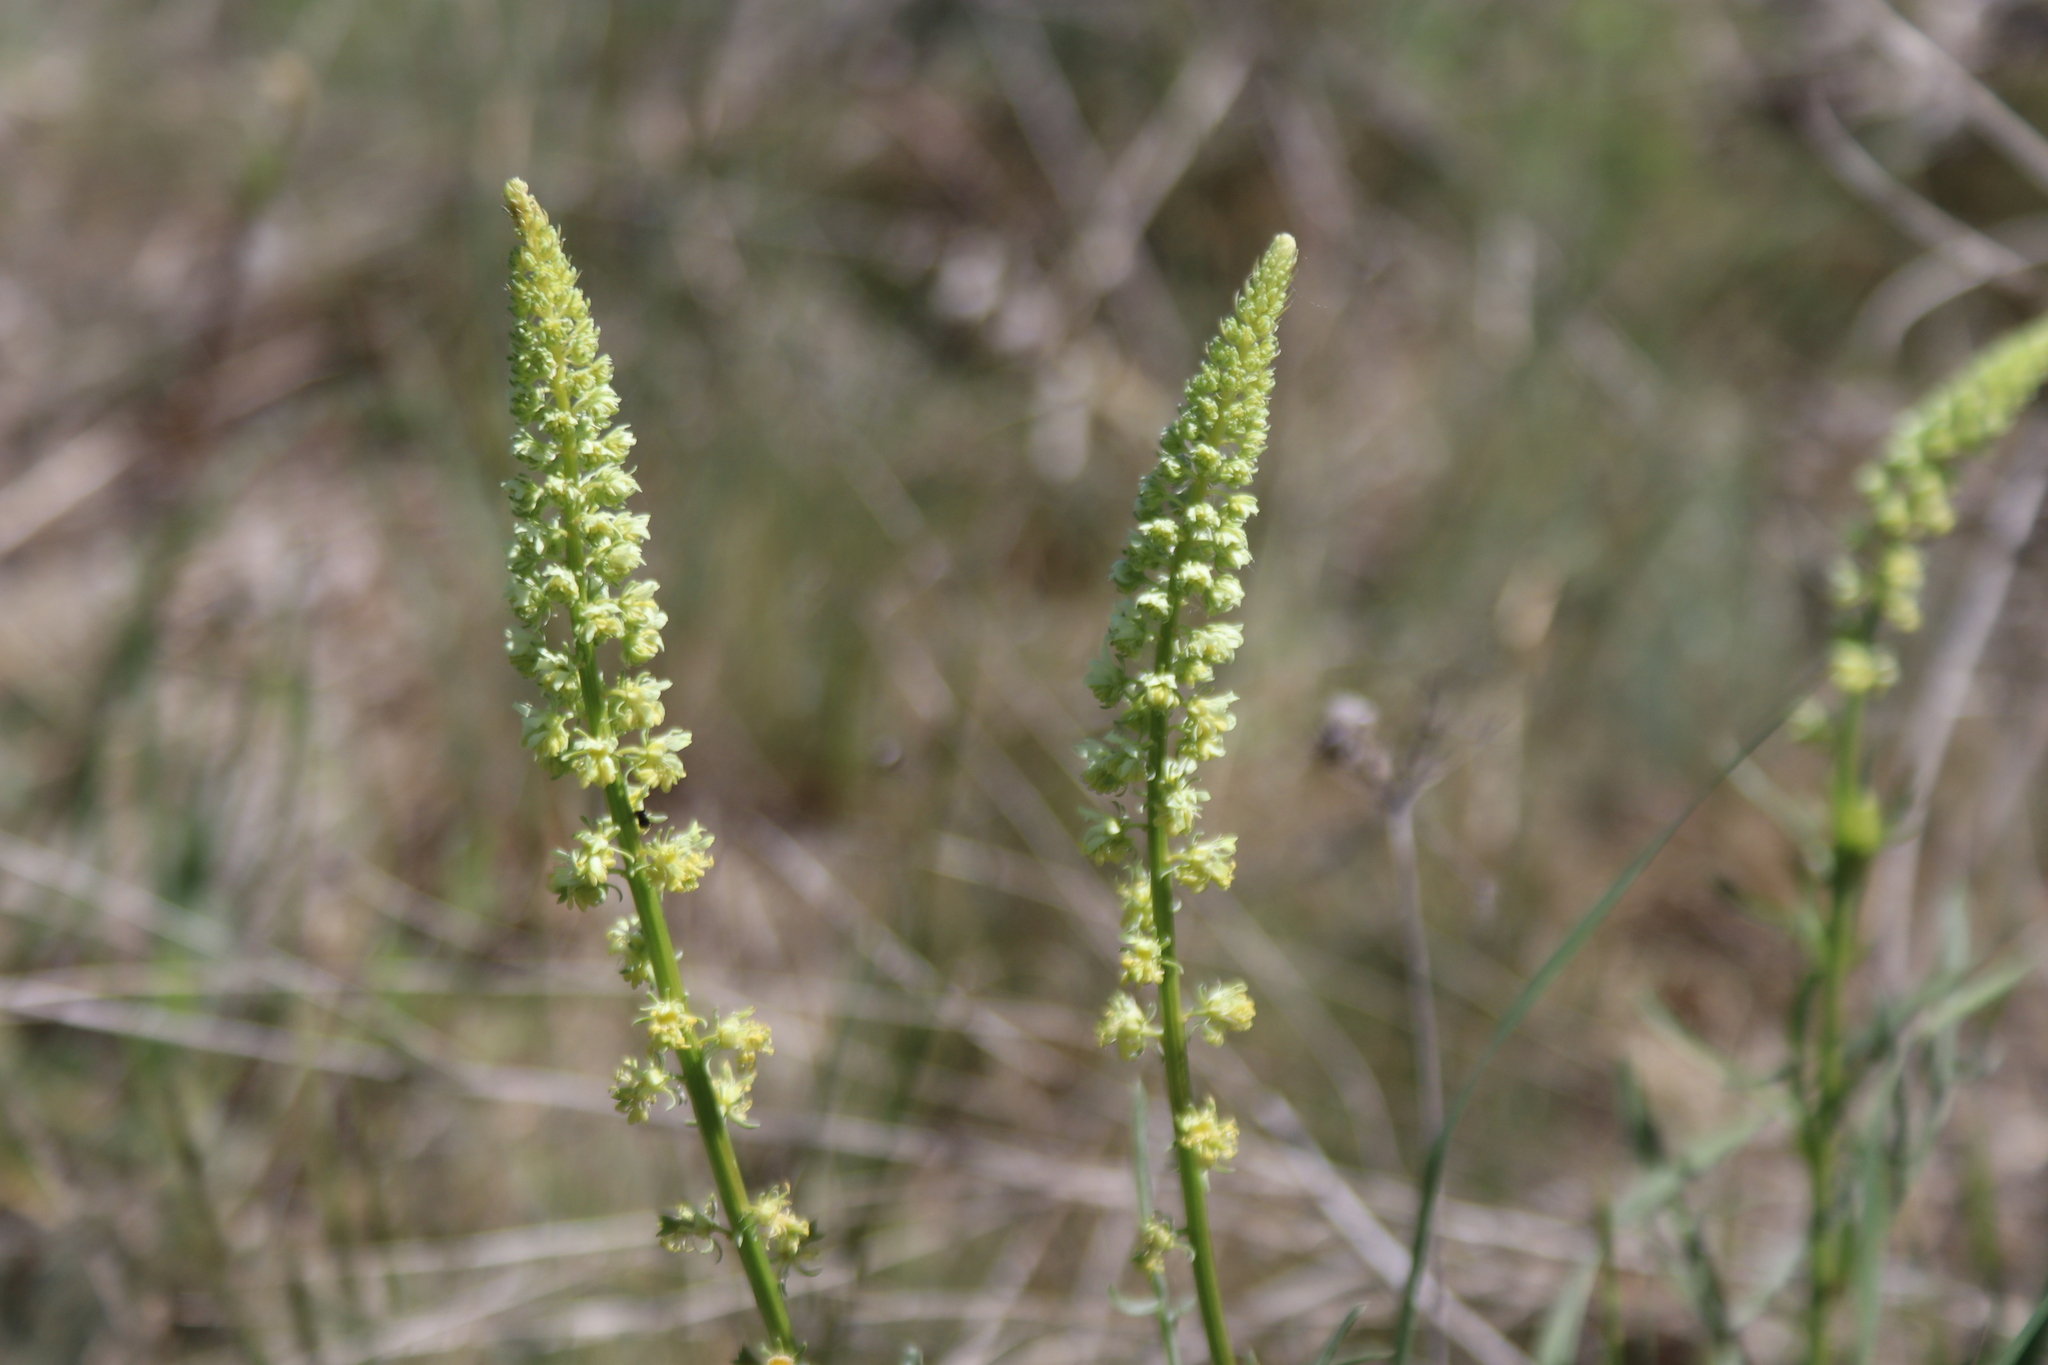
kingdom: Plantae
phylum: Tracheophyta
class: Magnoliopsida
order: Brassicales
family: Resedaceae
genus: Reseda
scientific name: Reseda lutea
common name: Wild mignonette
